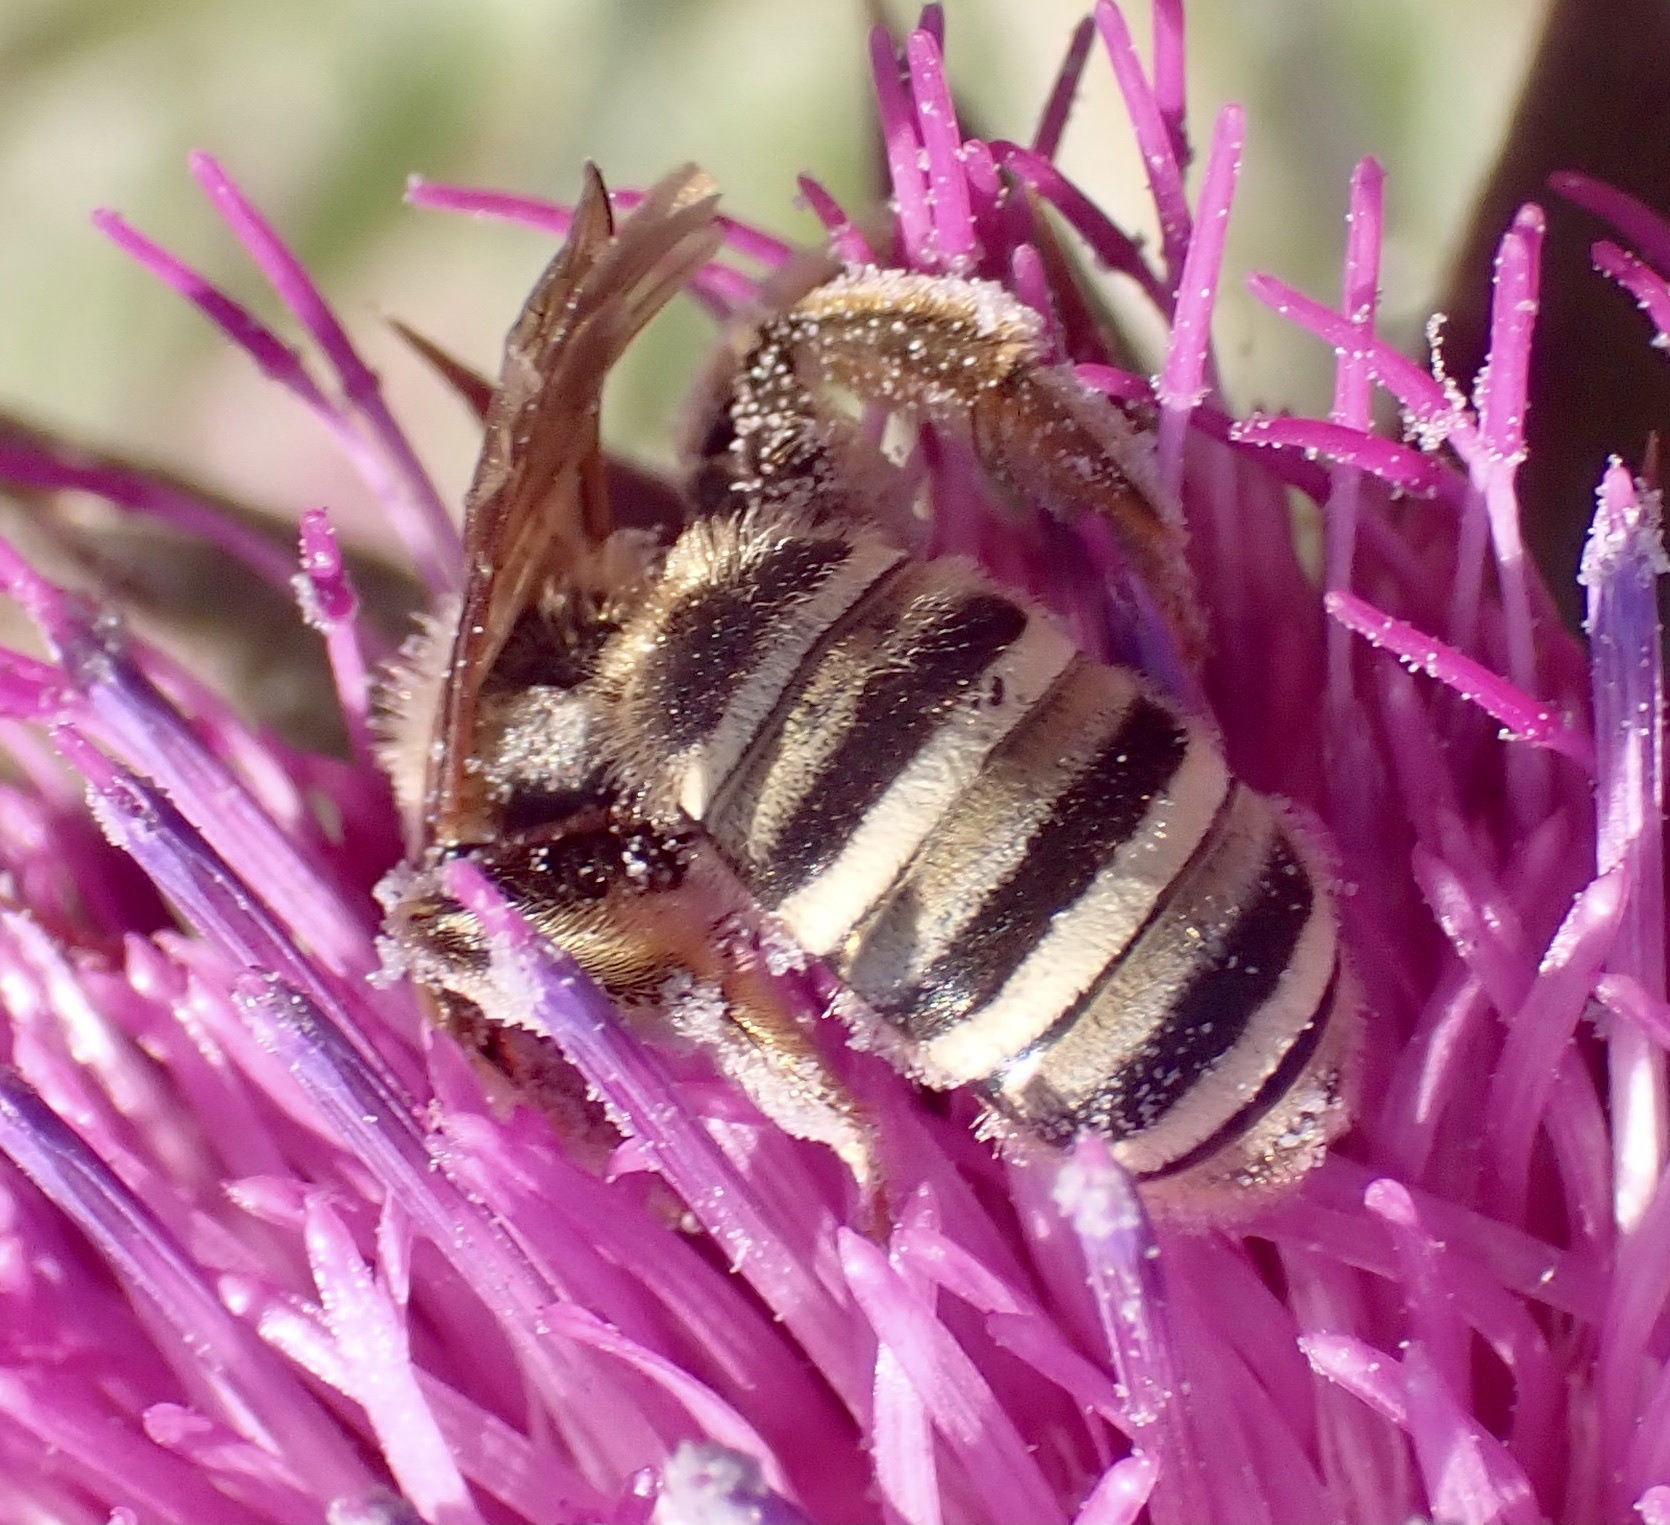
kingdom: Animalia
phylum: Arthropoda
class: Insecta
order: Hymenoptera
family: Halictidae
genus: Halictus
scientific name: Halictus scabiosae
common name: Great banded furrow bee
